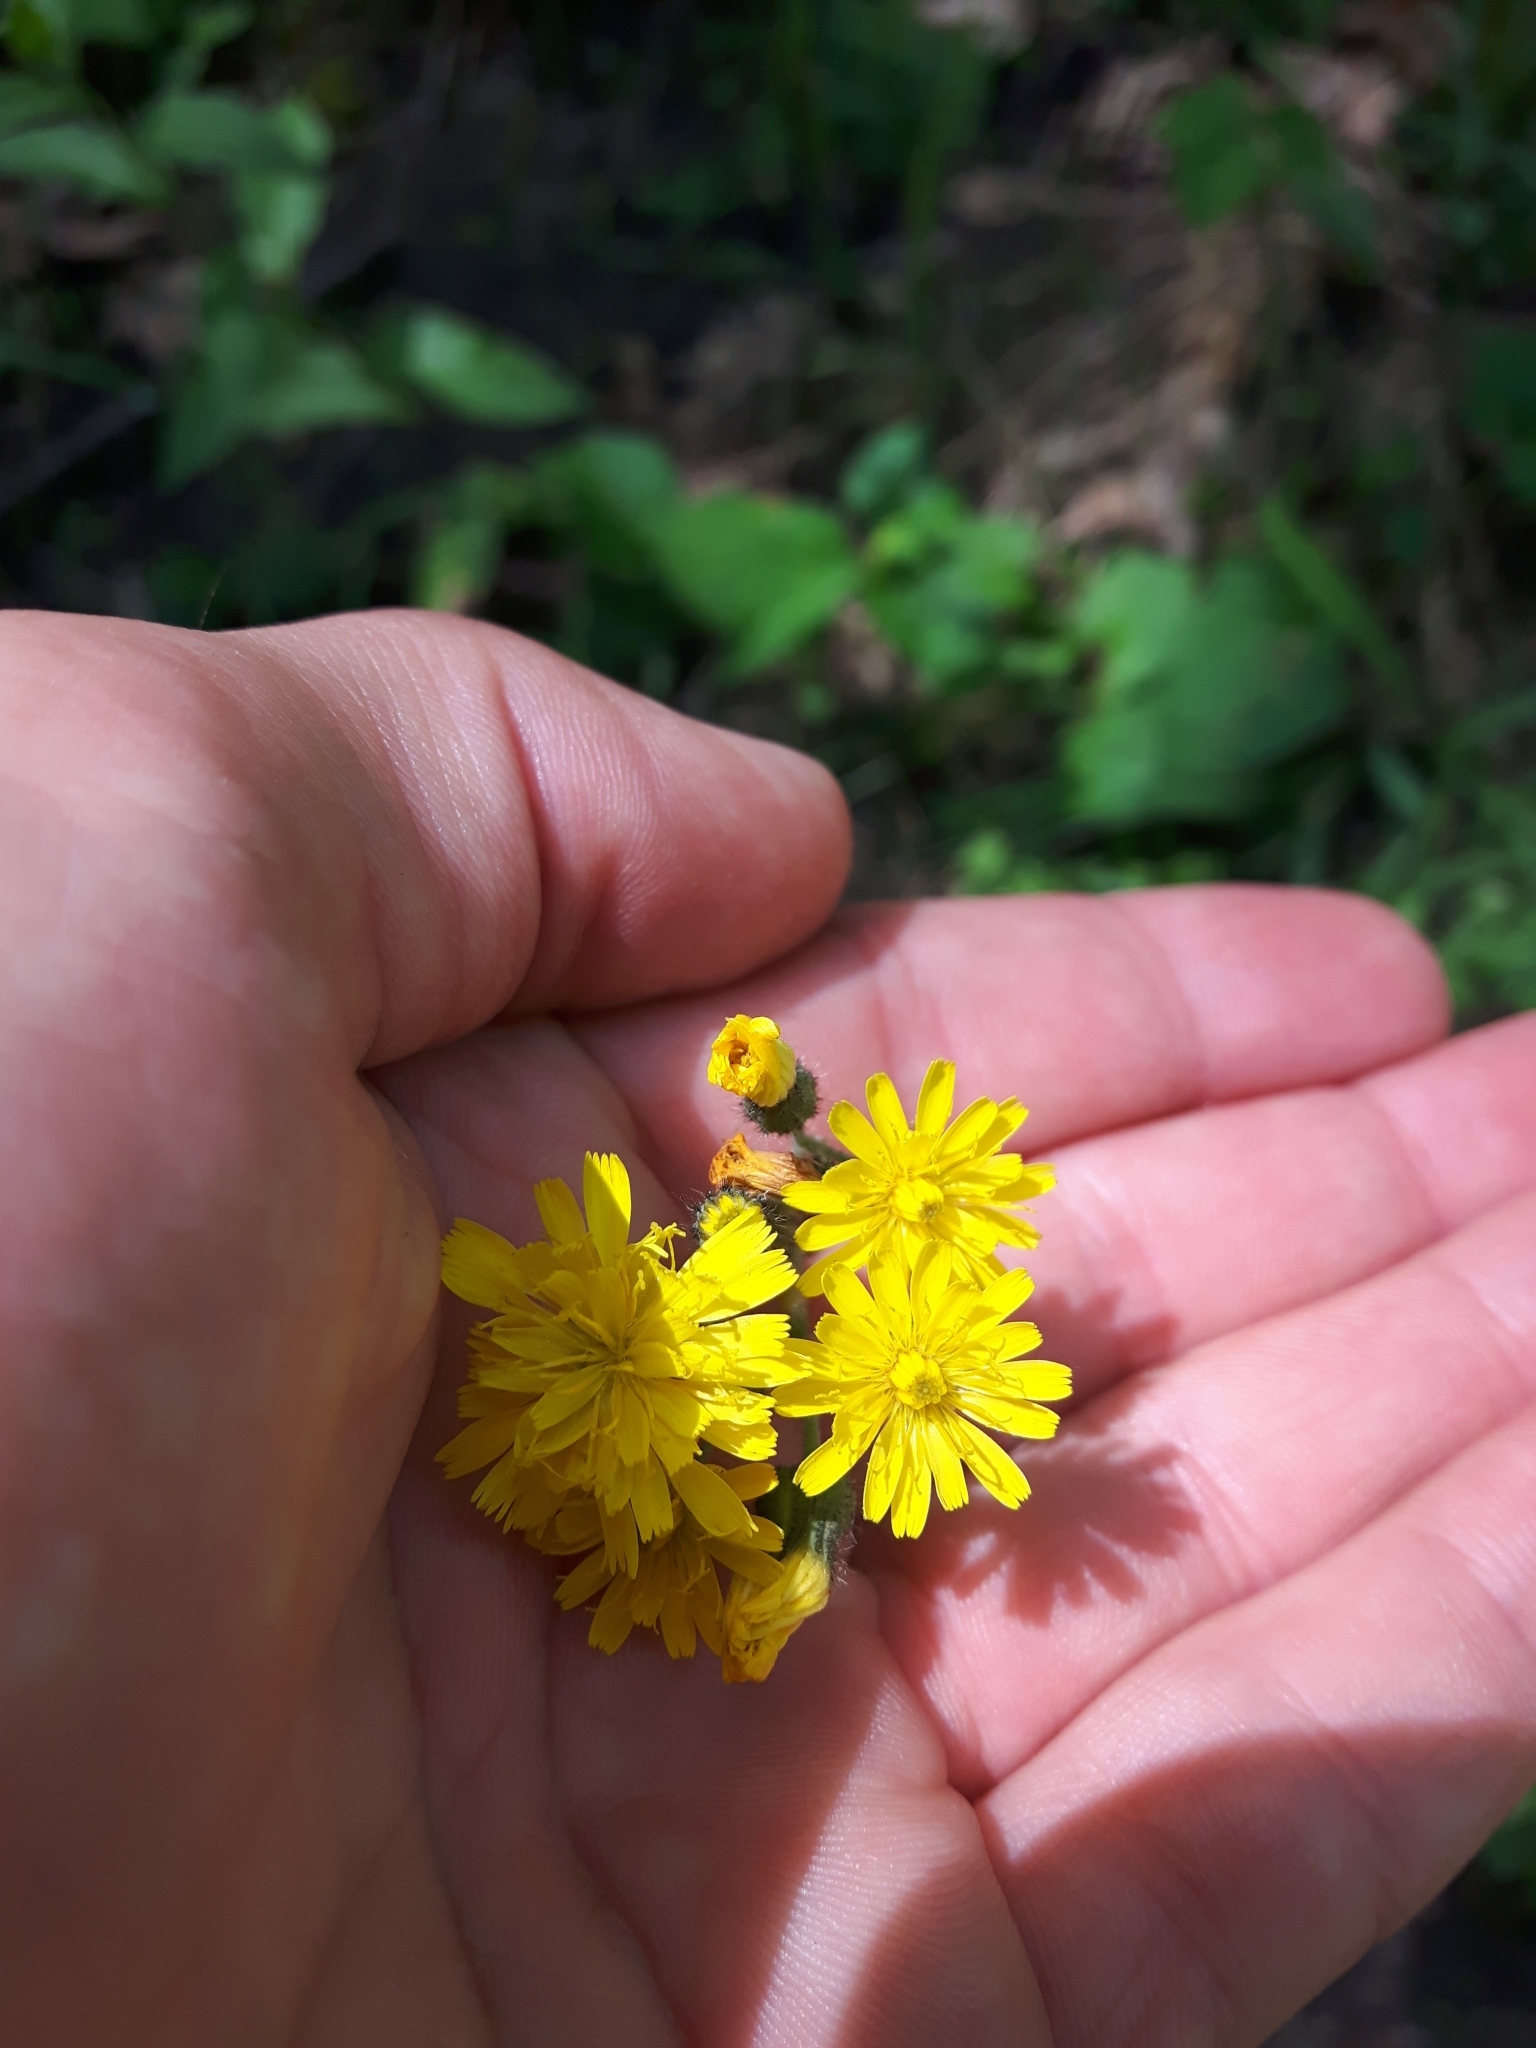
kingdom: Plantae
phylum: Tracheophyta
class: Magnoliopsida
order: Asterales
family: Asteraceae
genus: Pilosella
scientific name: Pilosella caespitosa
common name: Yellow fox-and-cubs
